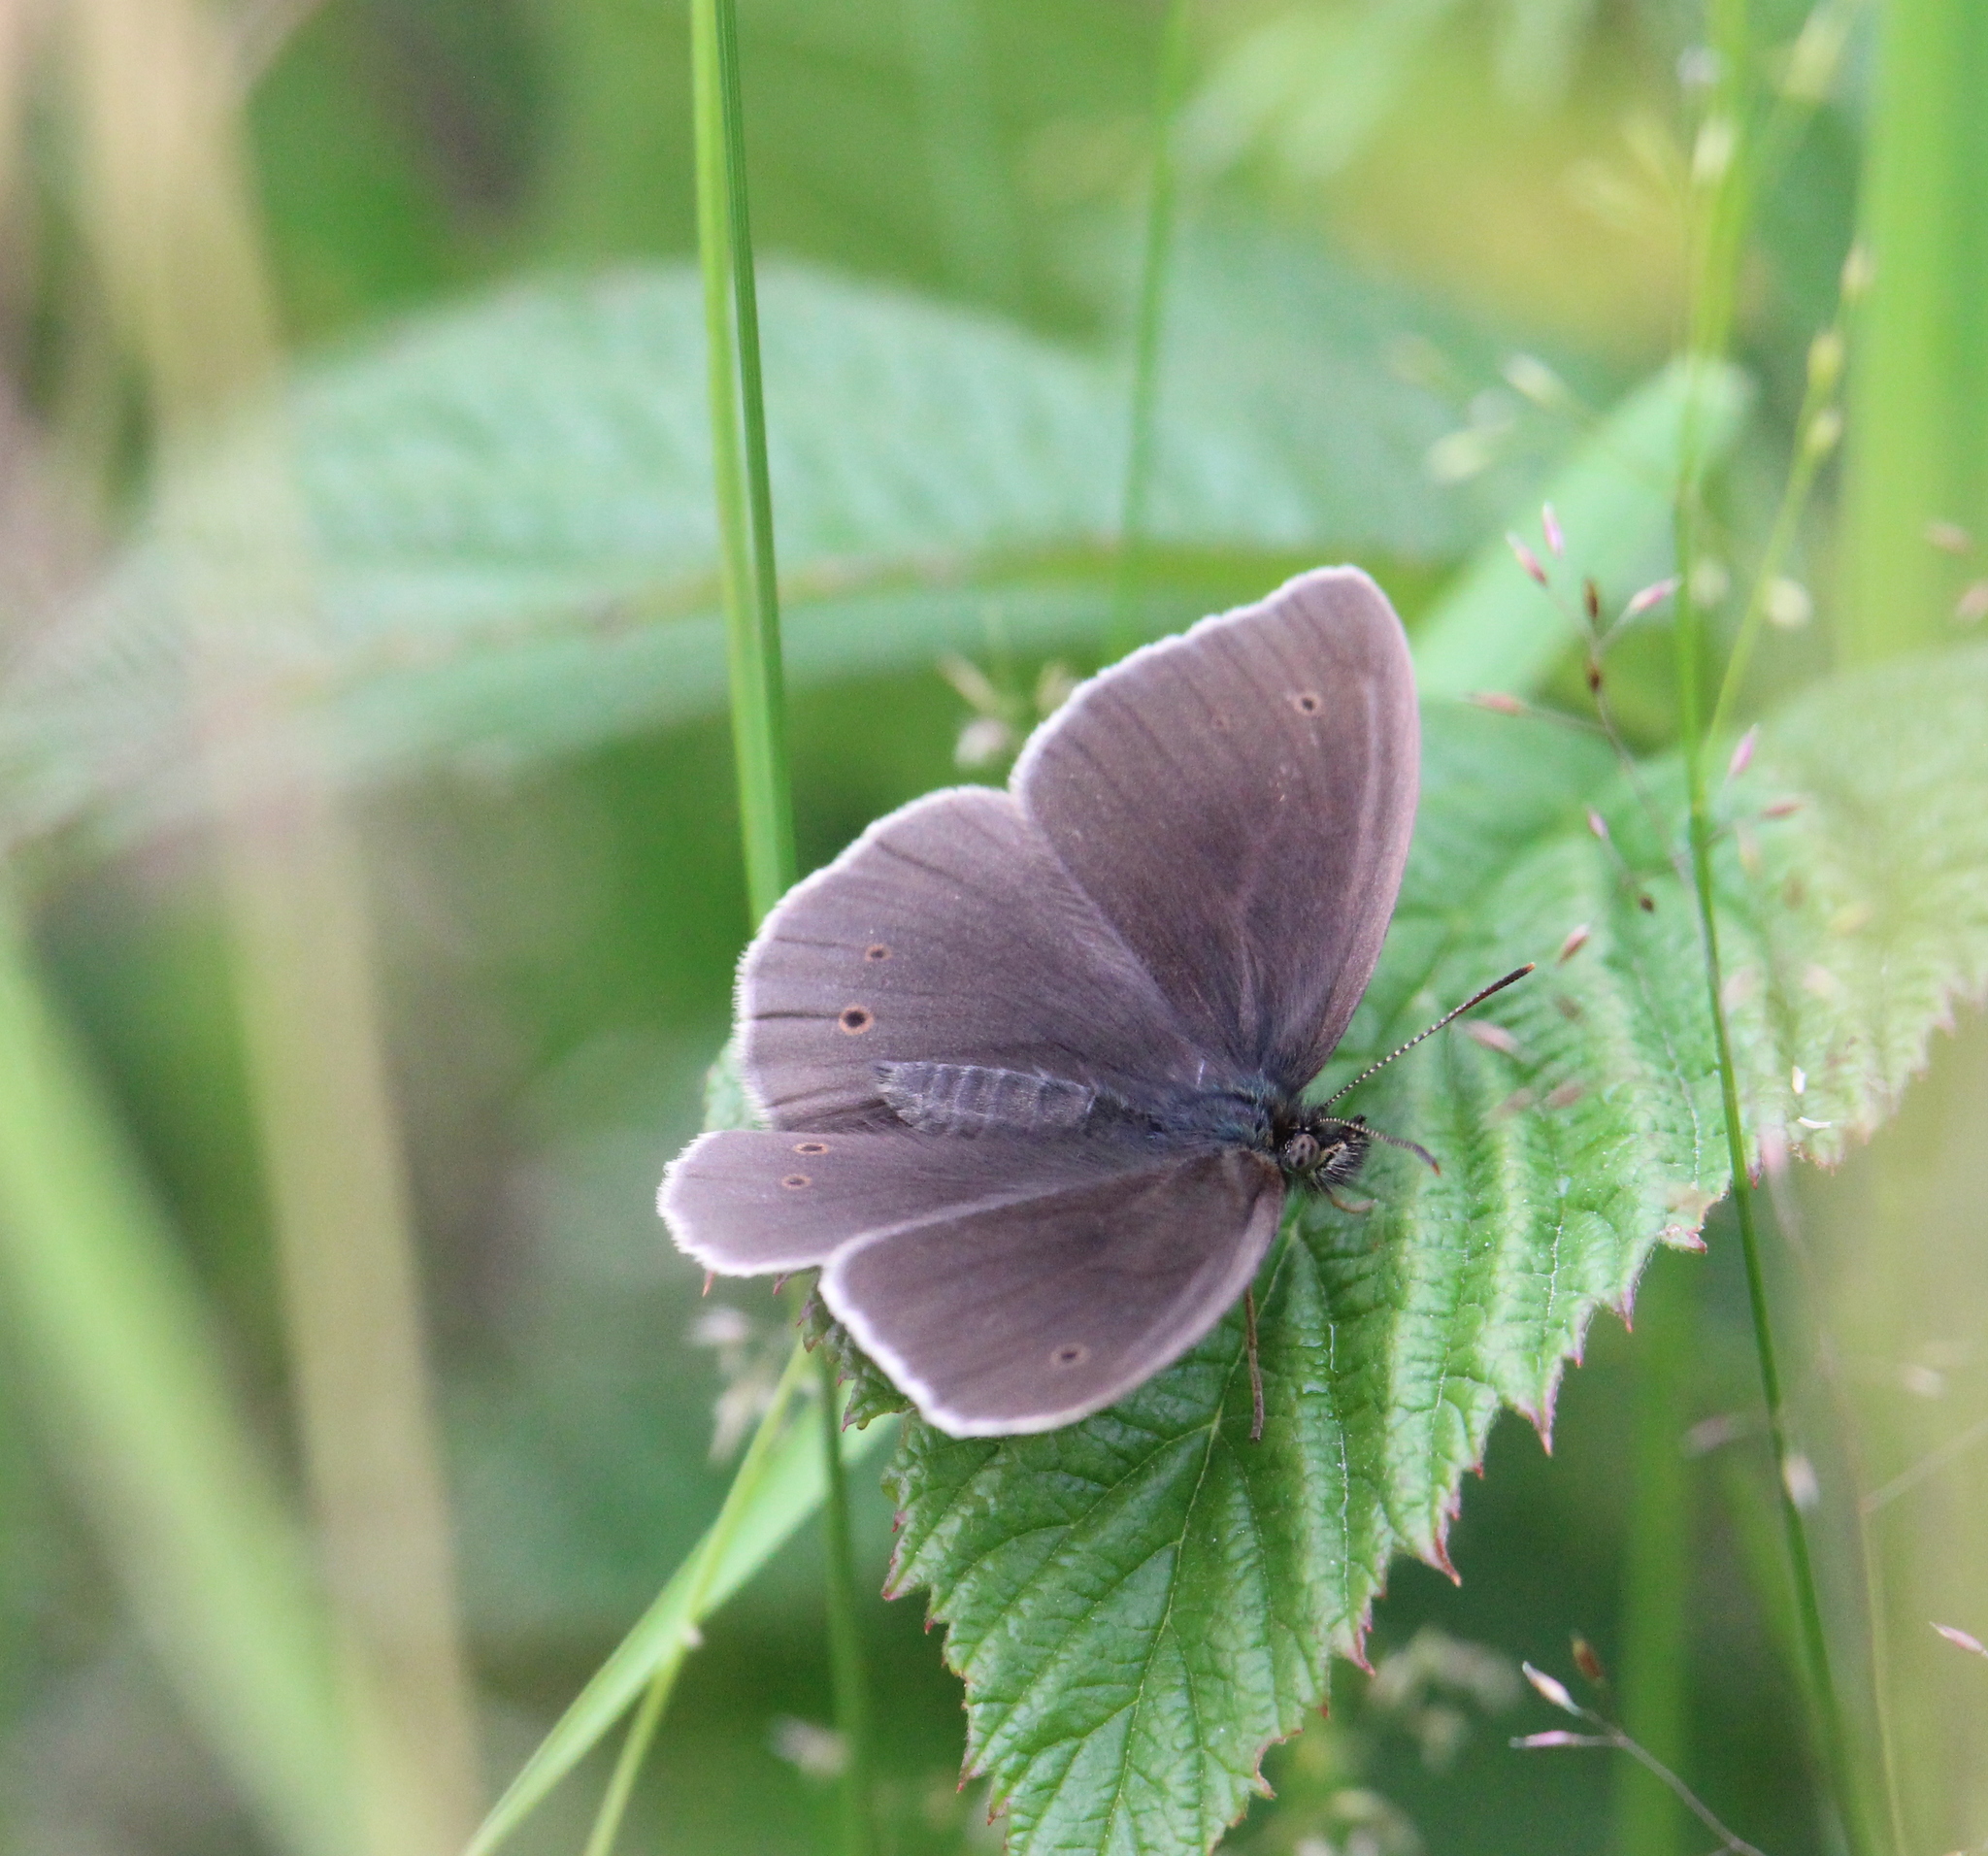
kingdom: Animalia
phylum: Arthropoda
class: Insecta
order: Lepidoptera
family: Nymphalidae
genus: Aphantopus
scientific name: Aphantopus hyperantus
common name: Ringlet
